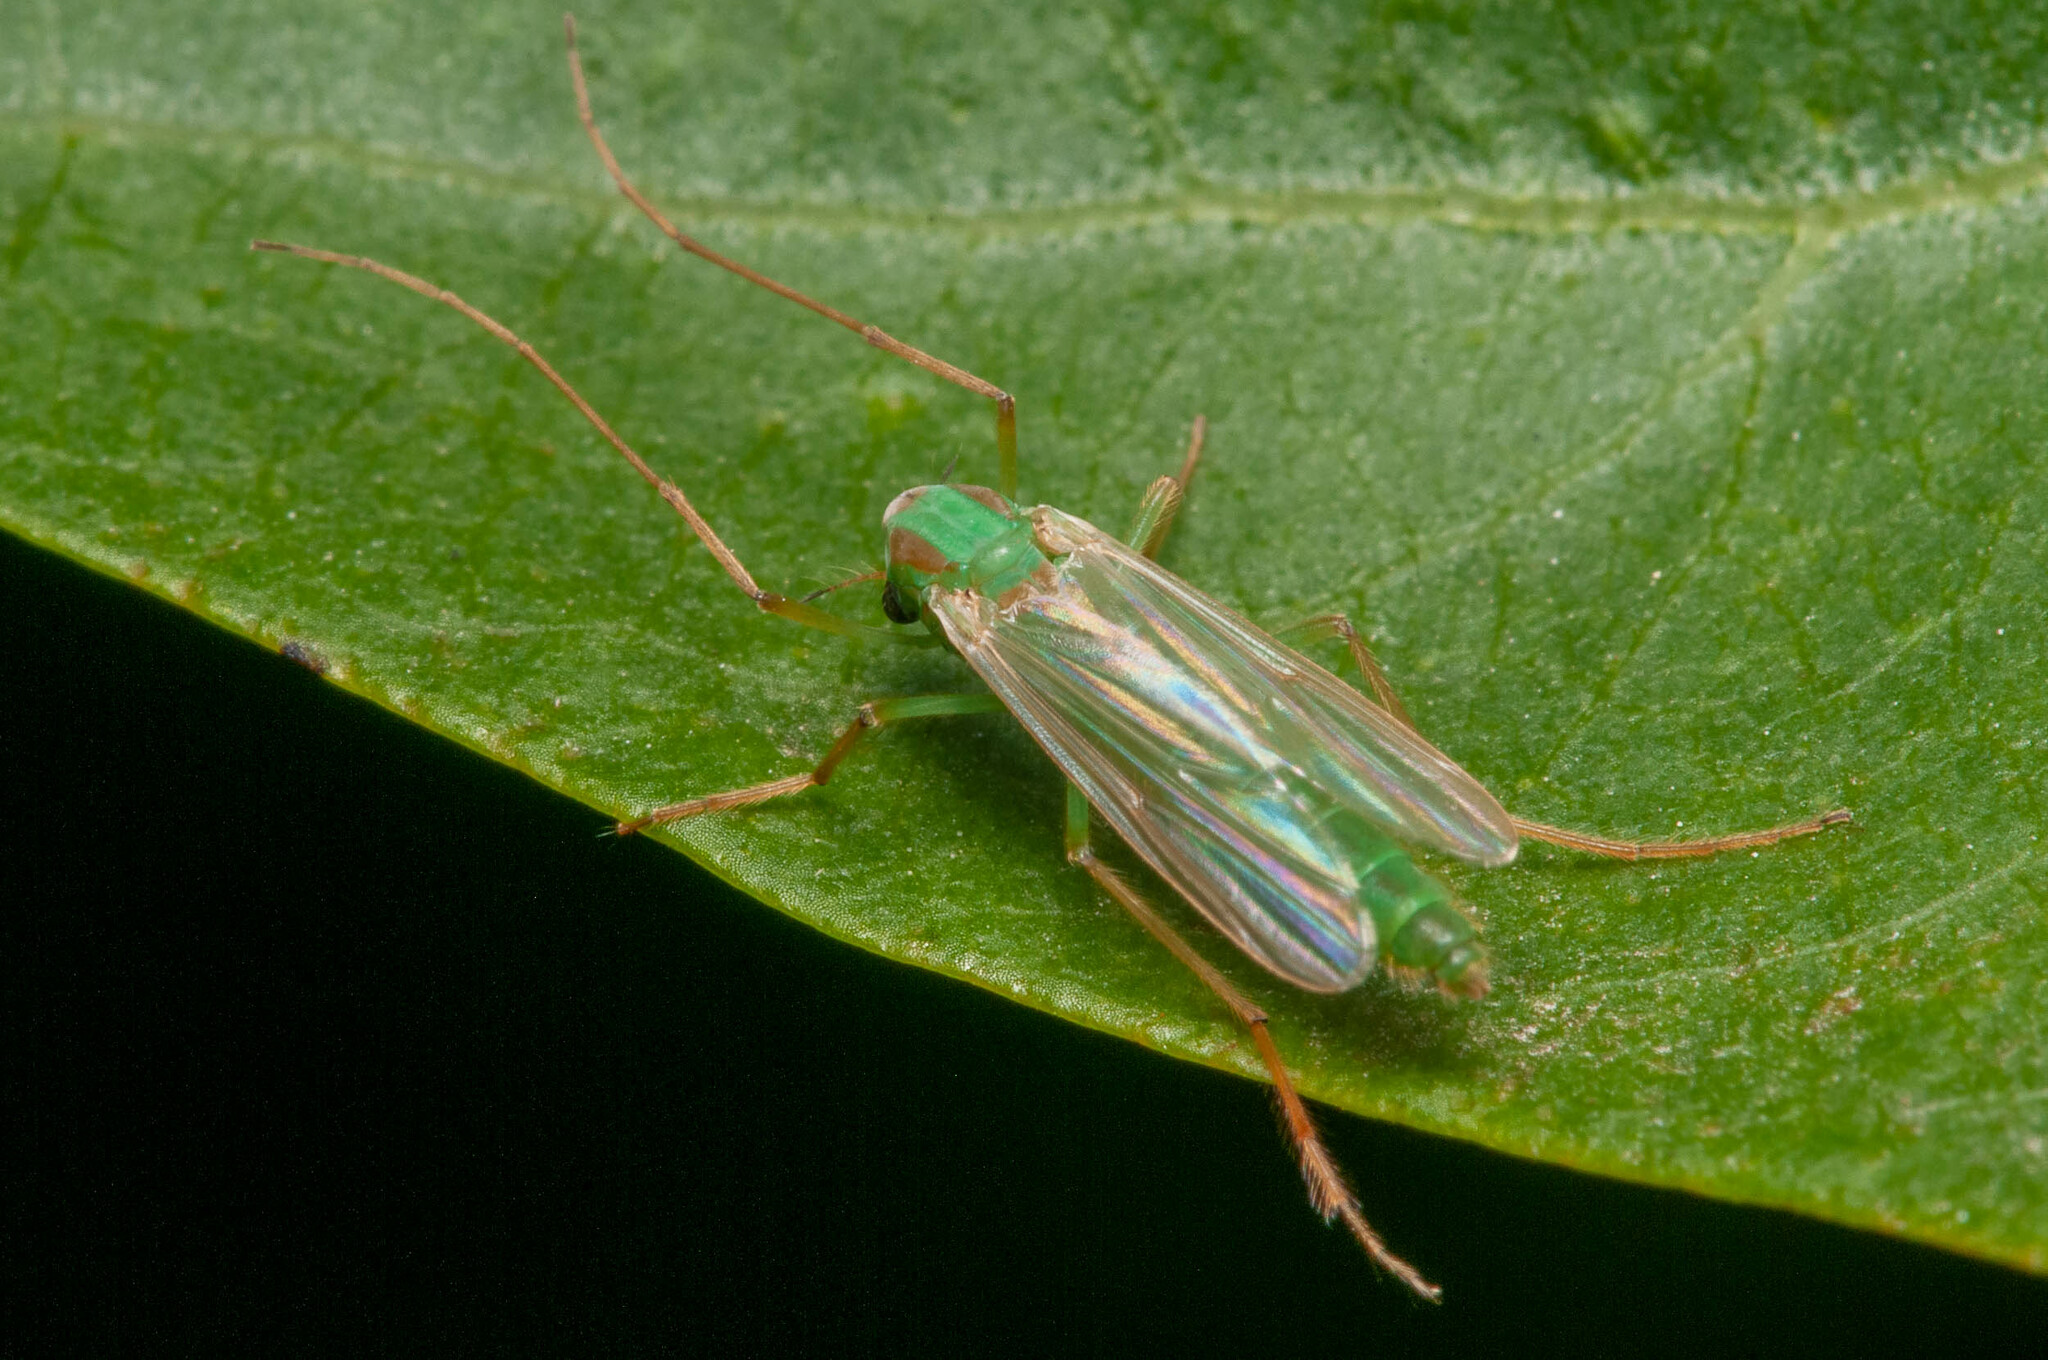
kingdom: Animalia
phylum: Arthropoda
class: Insecta
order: Diptera
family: Chironomidae
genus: Axarus
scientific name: Axarus
